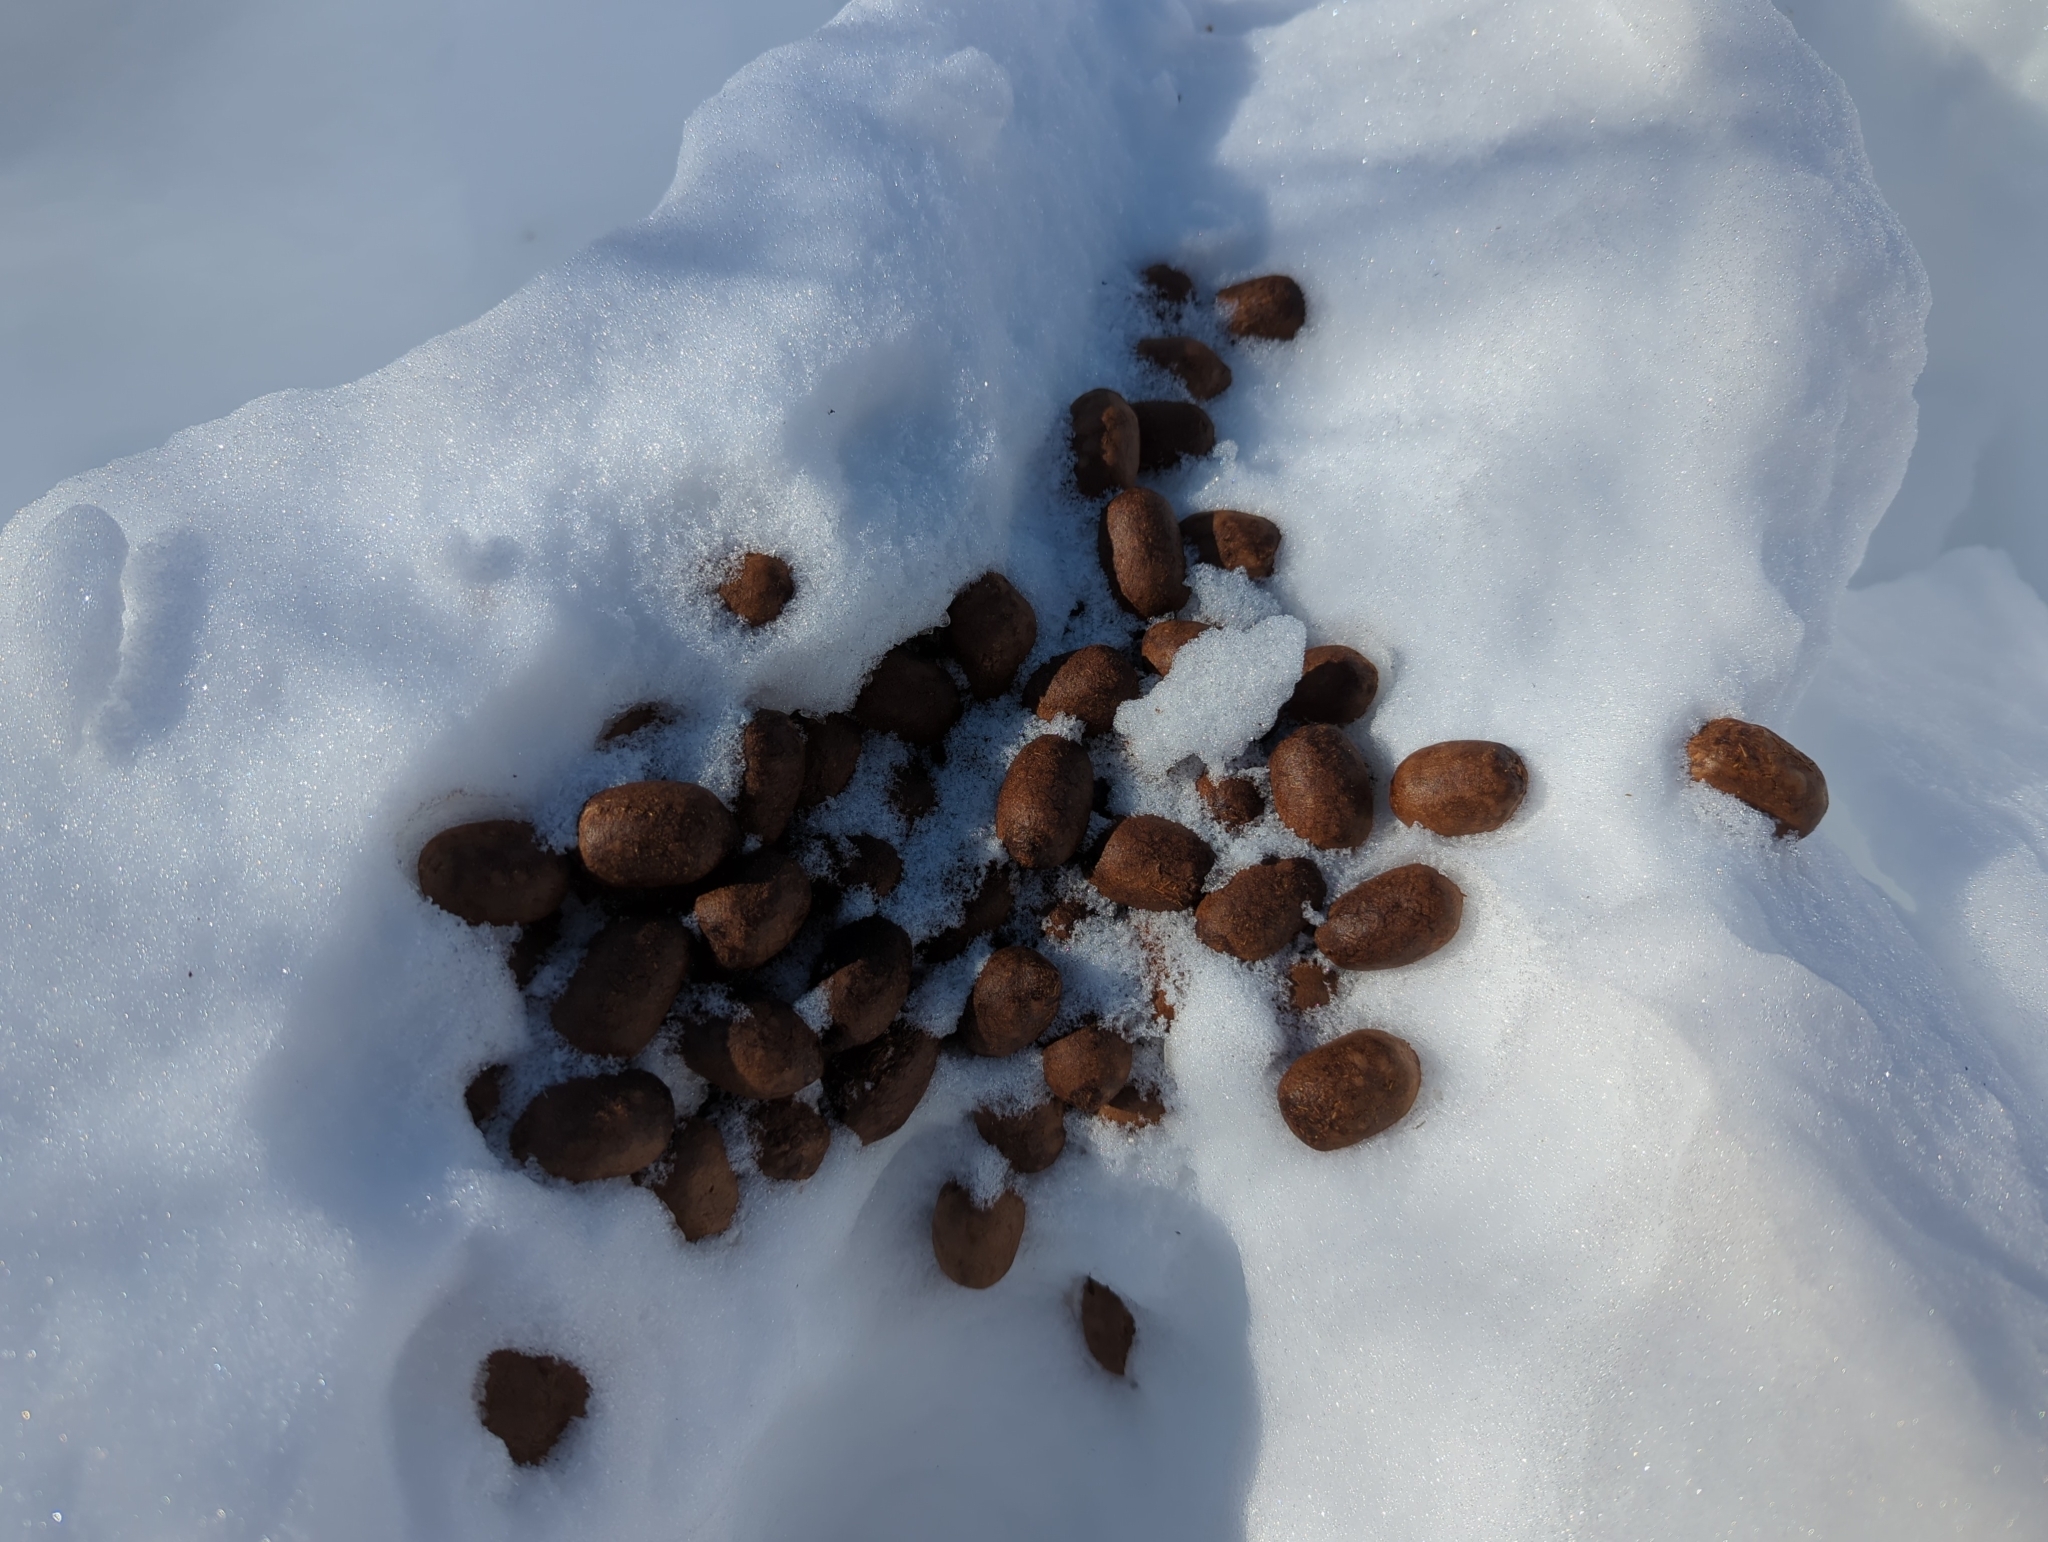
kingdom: Animalia
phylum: Chordata
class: Mammalia
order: Artiodactyla
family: Cervidae
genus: Alces
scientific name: Alces alces
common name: Moose
